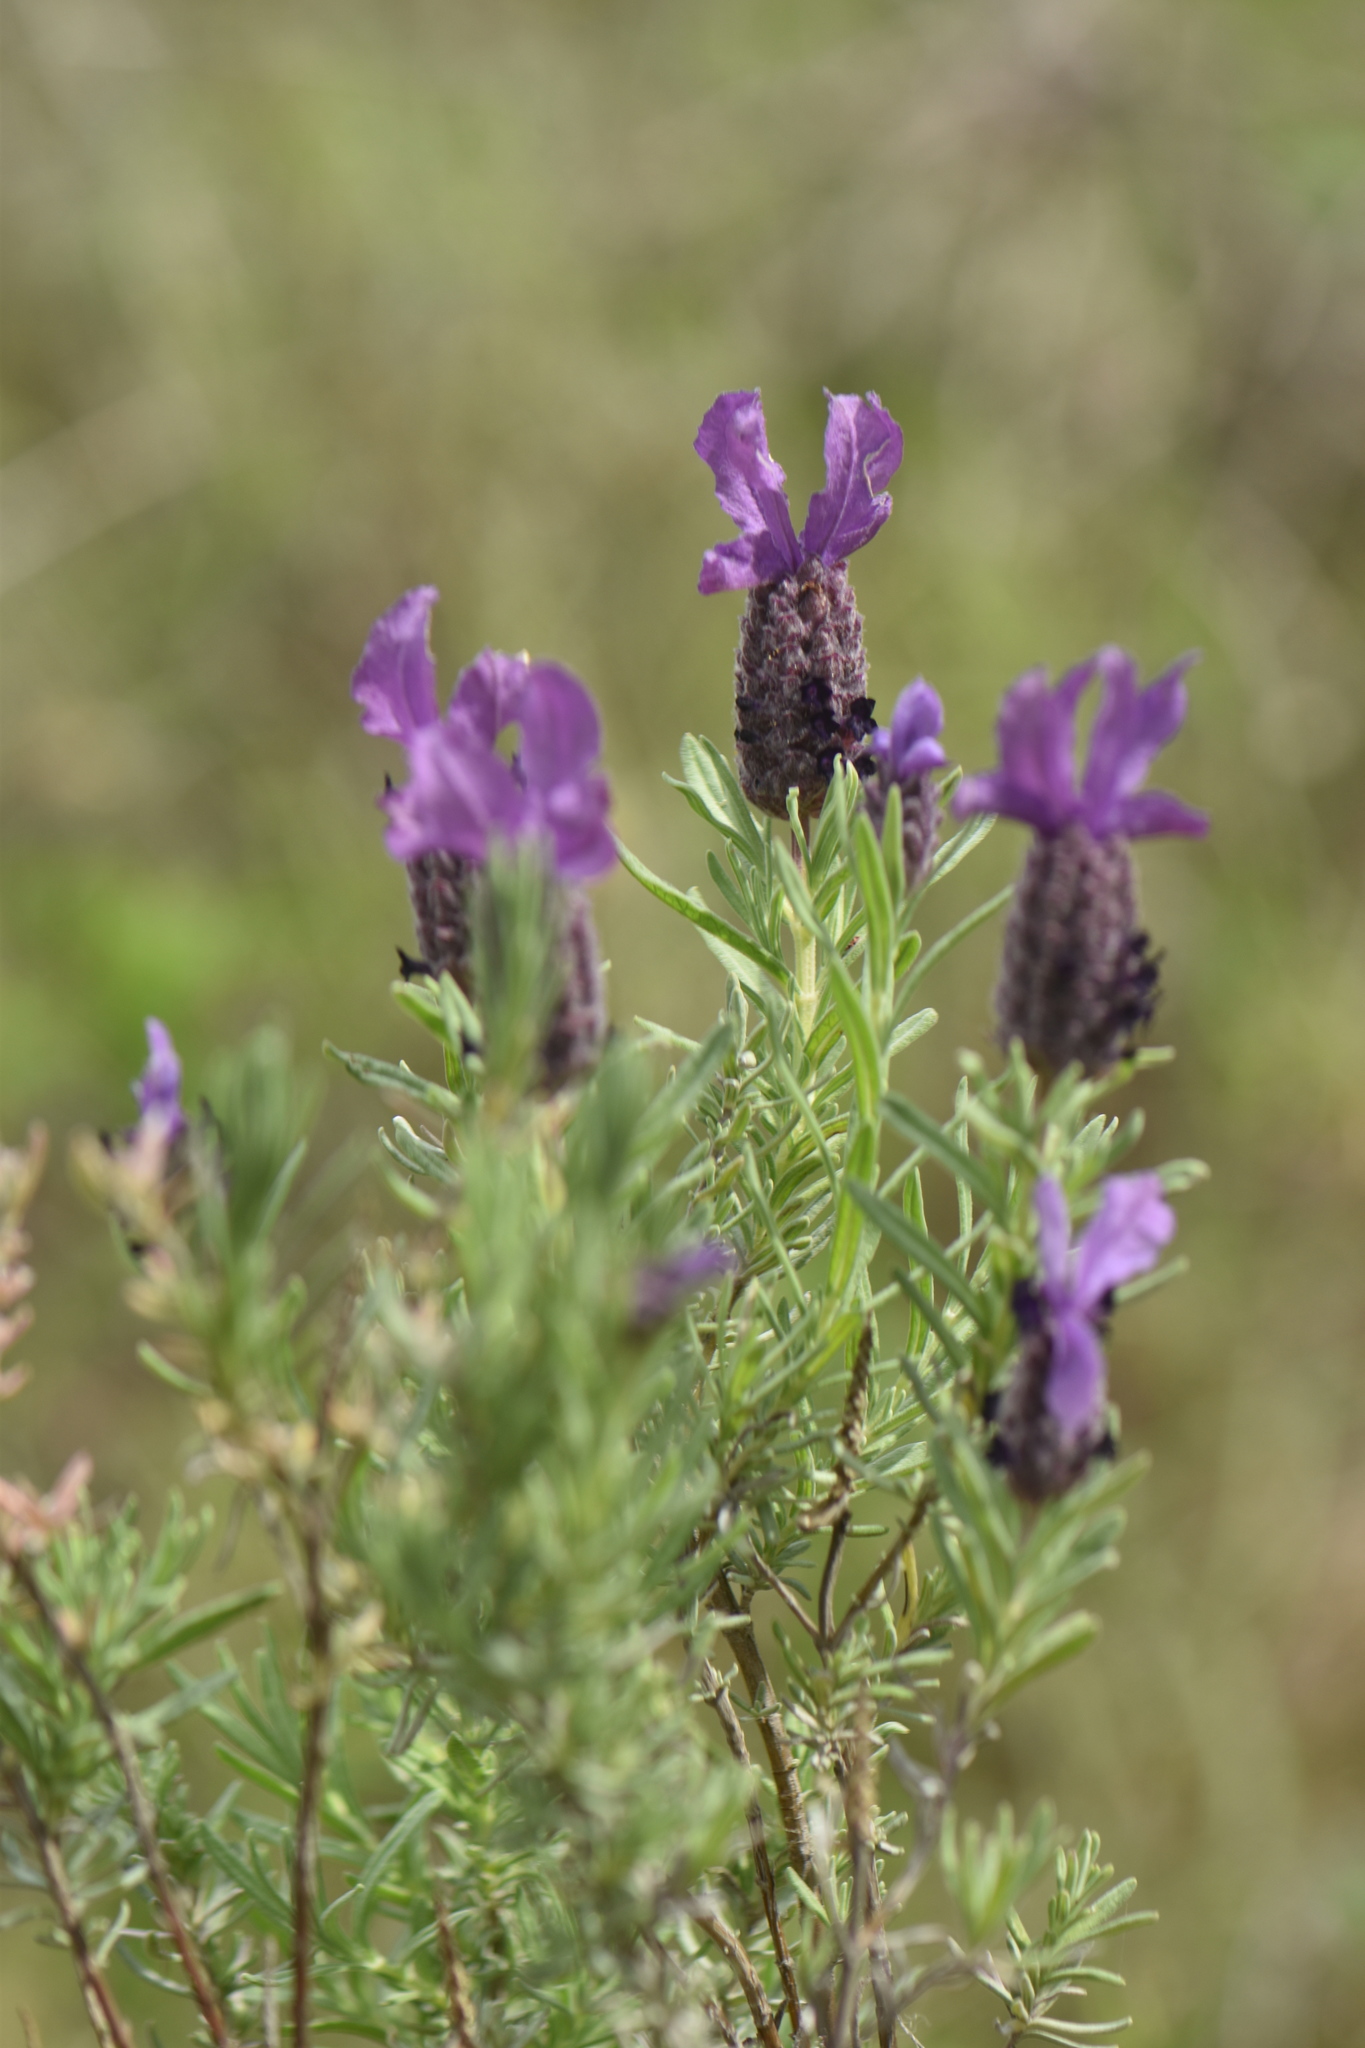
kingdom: Plantae
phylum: Tracheophyta
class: Magnoliopsida
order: Lamiales
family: Lamiaceae
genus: Lavandula
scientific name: Lavandula stoechas
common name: French lavender
